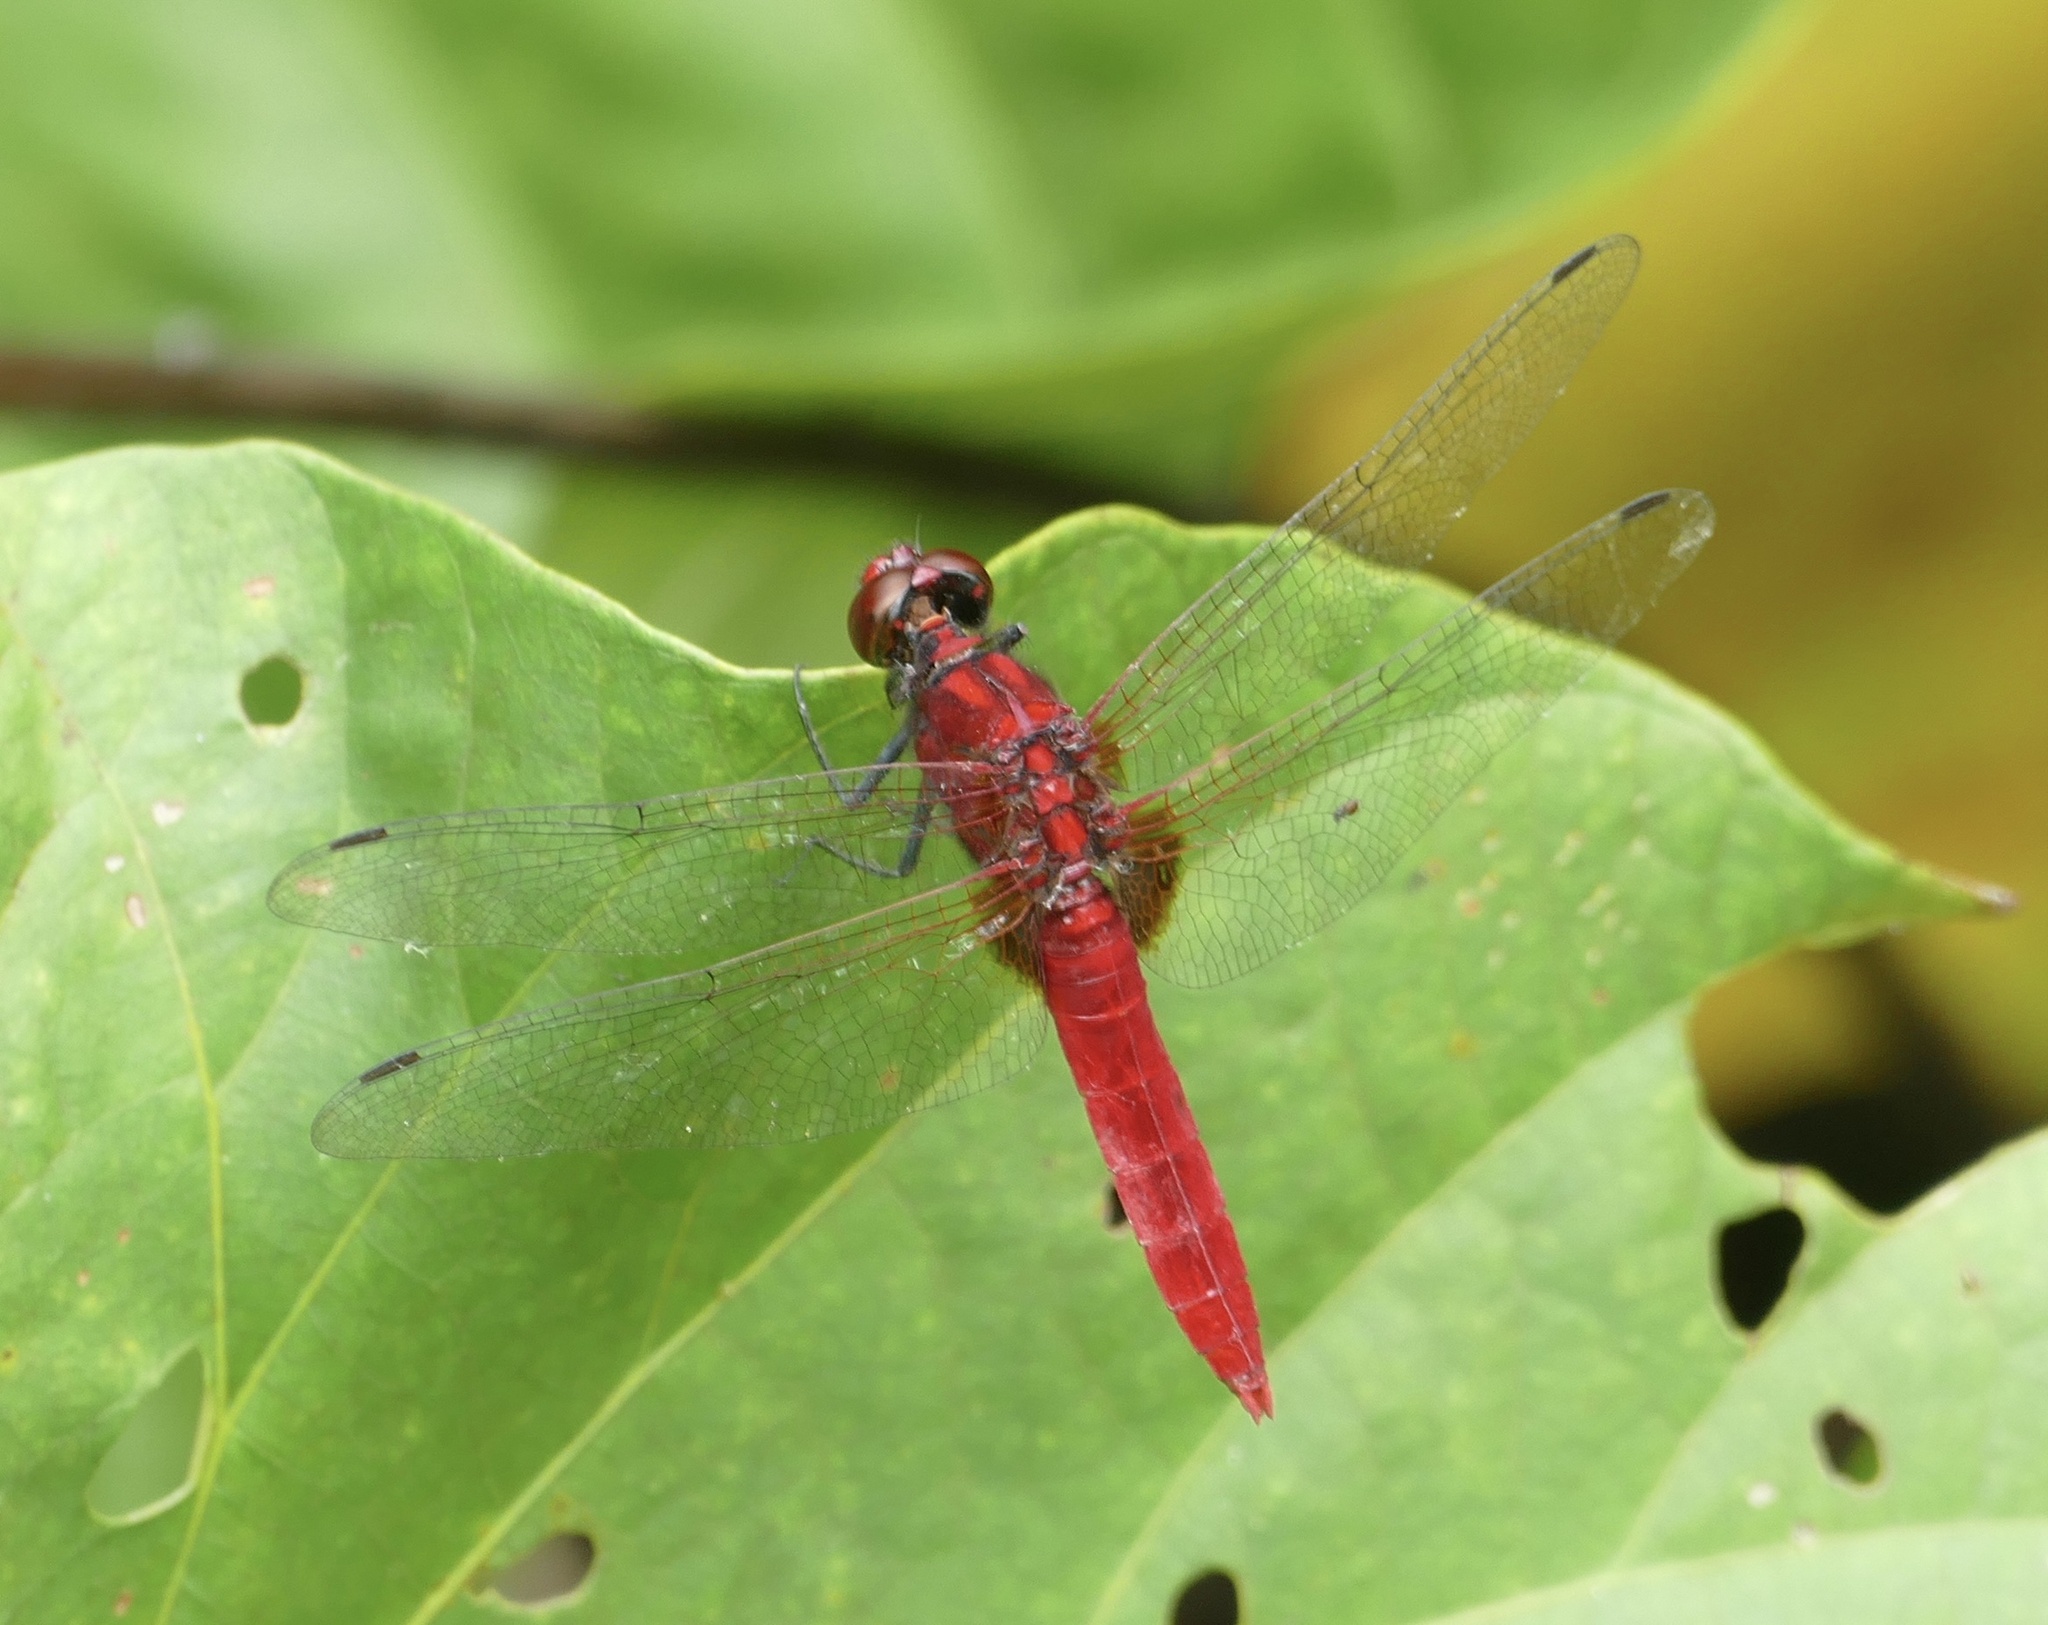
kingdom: Animalia
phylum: Arthropoda
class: Insecta
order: Odonata
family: Libellulidae
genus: Rhodothemis
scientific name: Rhodothemis nigripes
